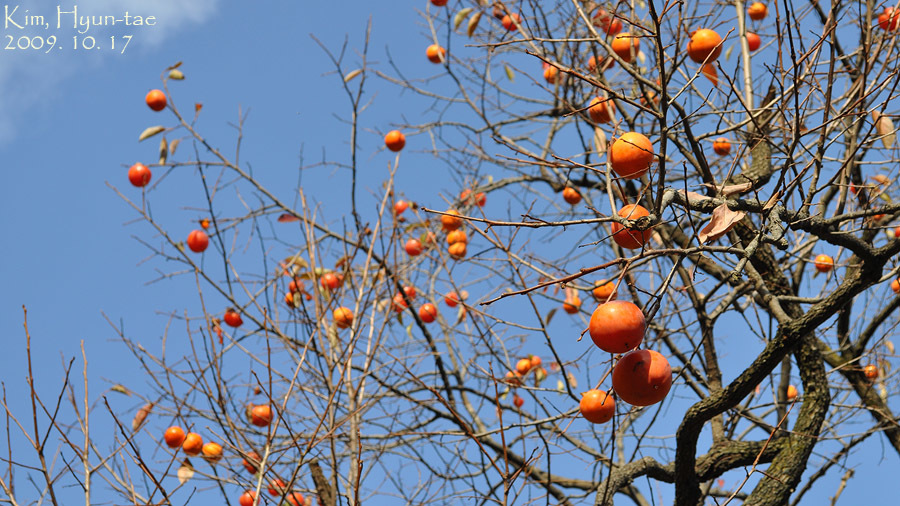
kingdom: Plantae
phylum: Tracheophyta
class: Magnoliopsida
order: Ericales
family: Ebenaceae
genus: Diospyros
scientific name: Diospyros kaki
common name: Persimmon
